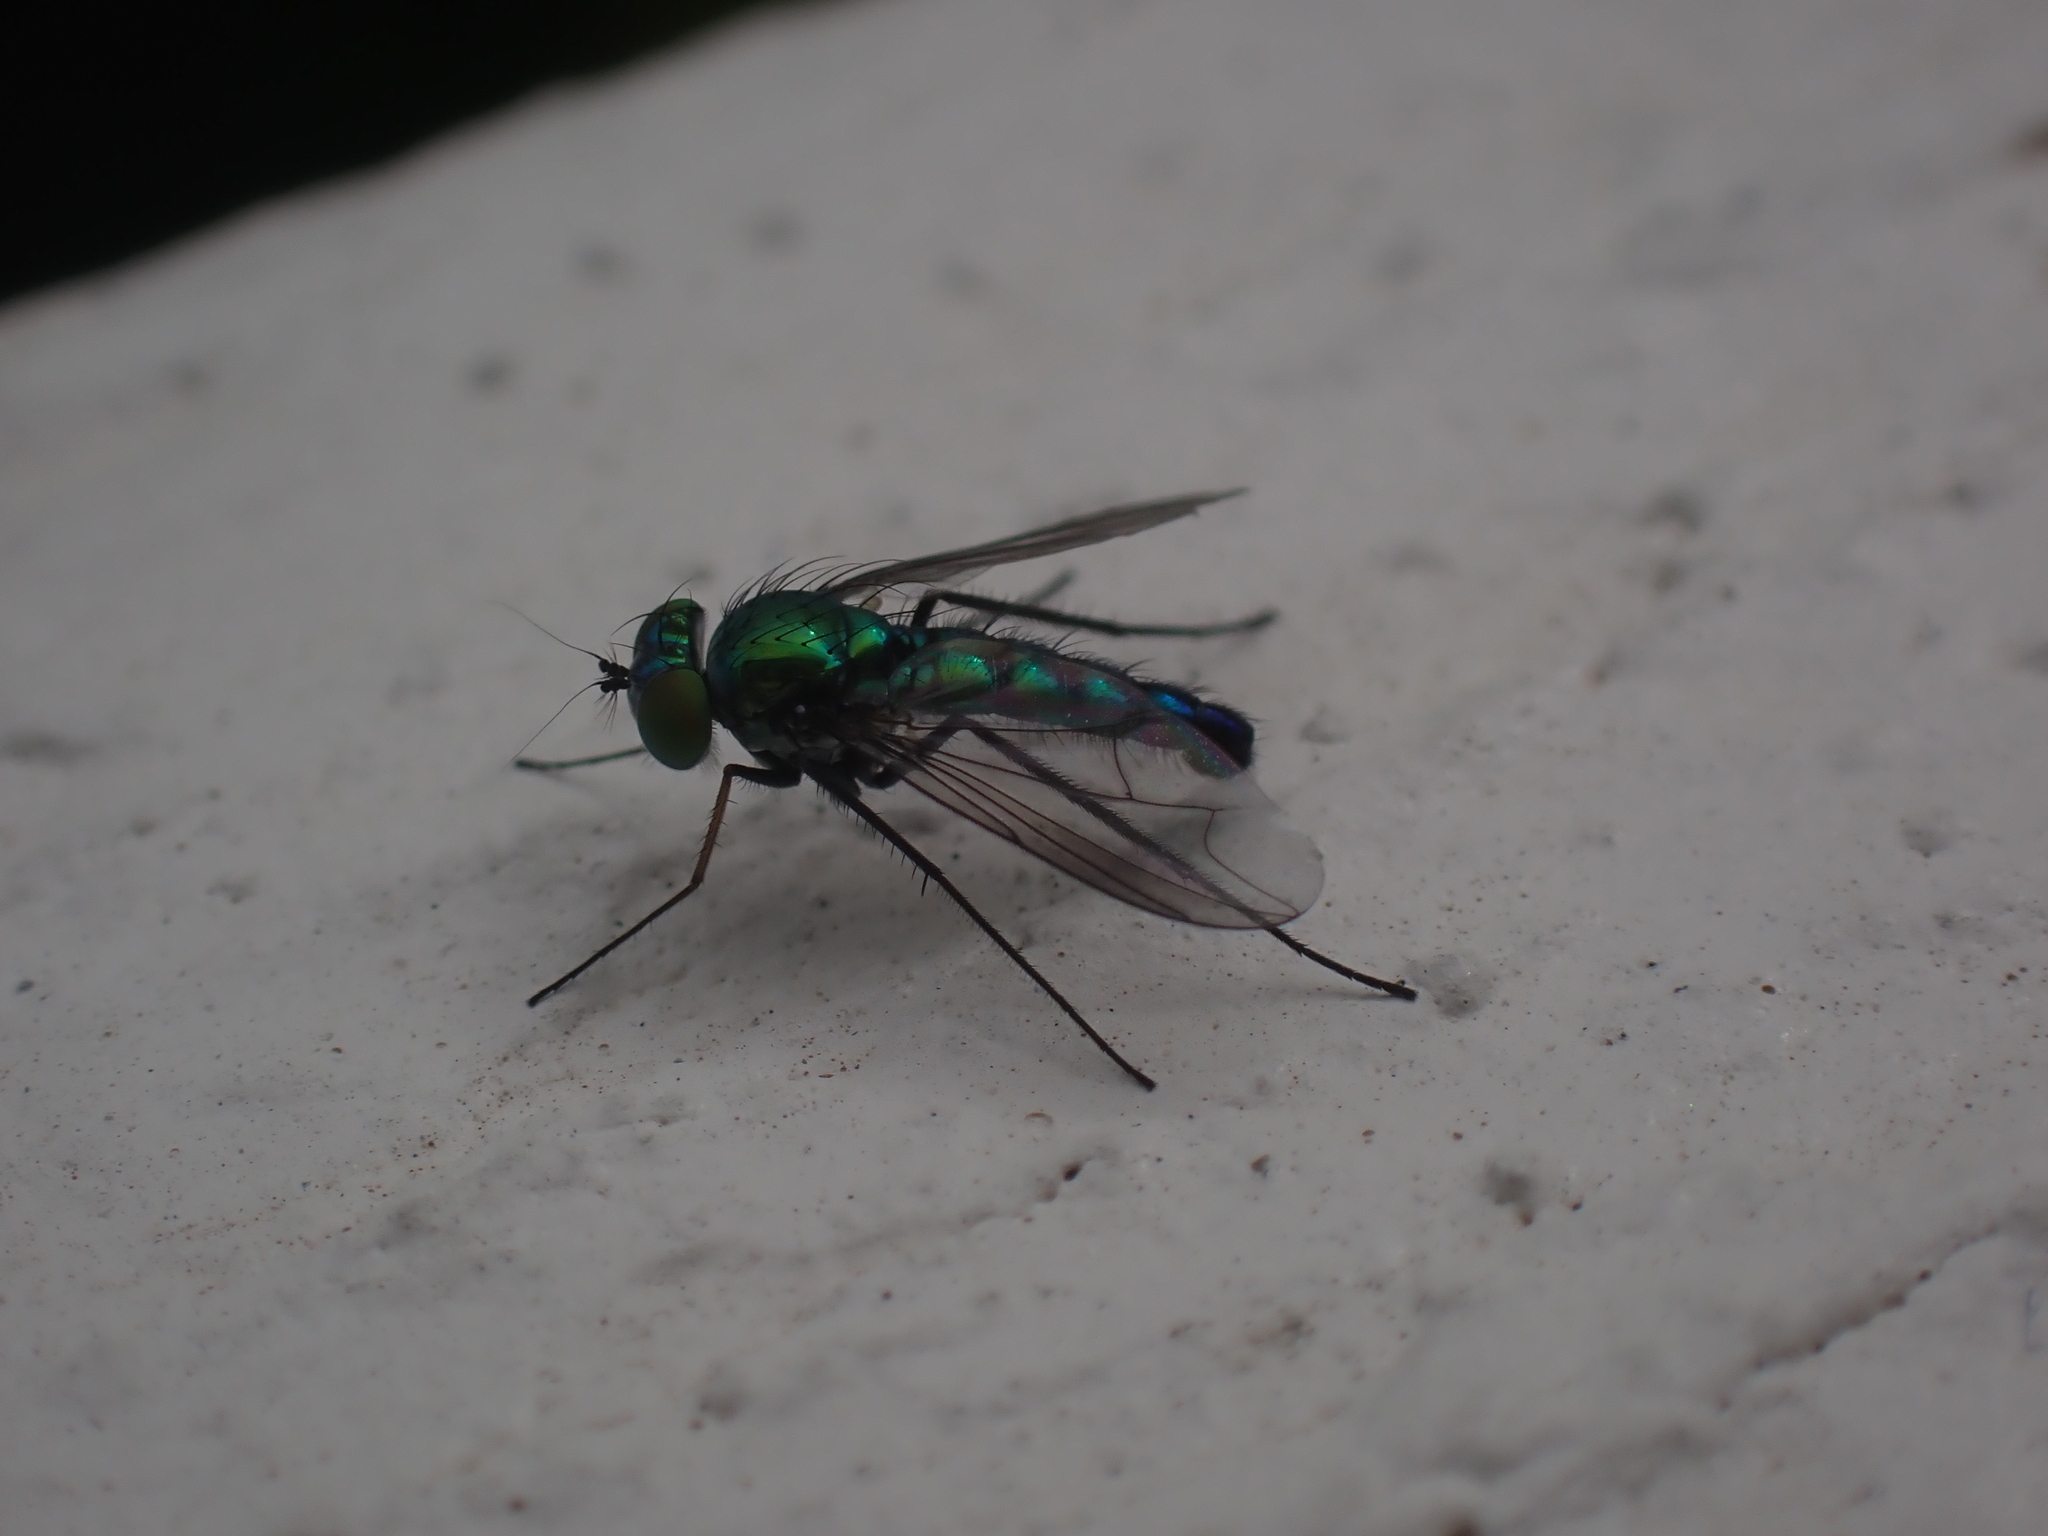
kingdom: Animalia
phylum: Arthropoda
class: Insecta
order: Diptera
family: Dolichopodidae
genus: Condylostylus
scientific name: Condylostylus longicornis
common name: Long-legged fly
